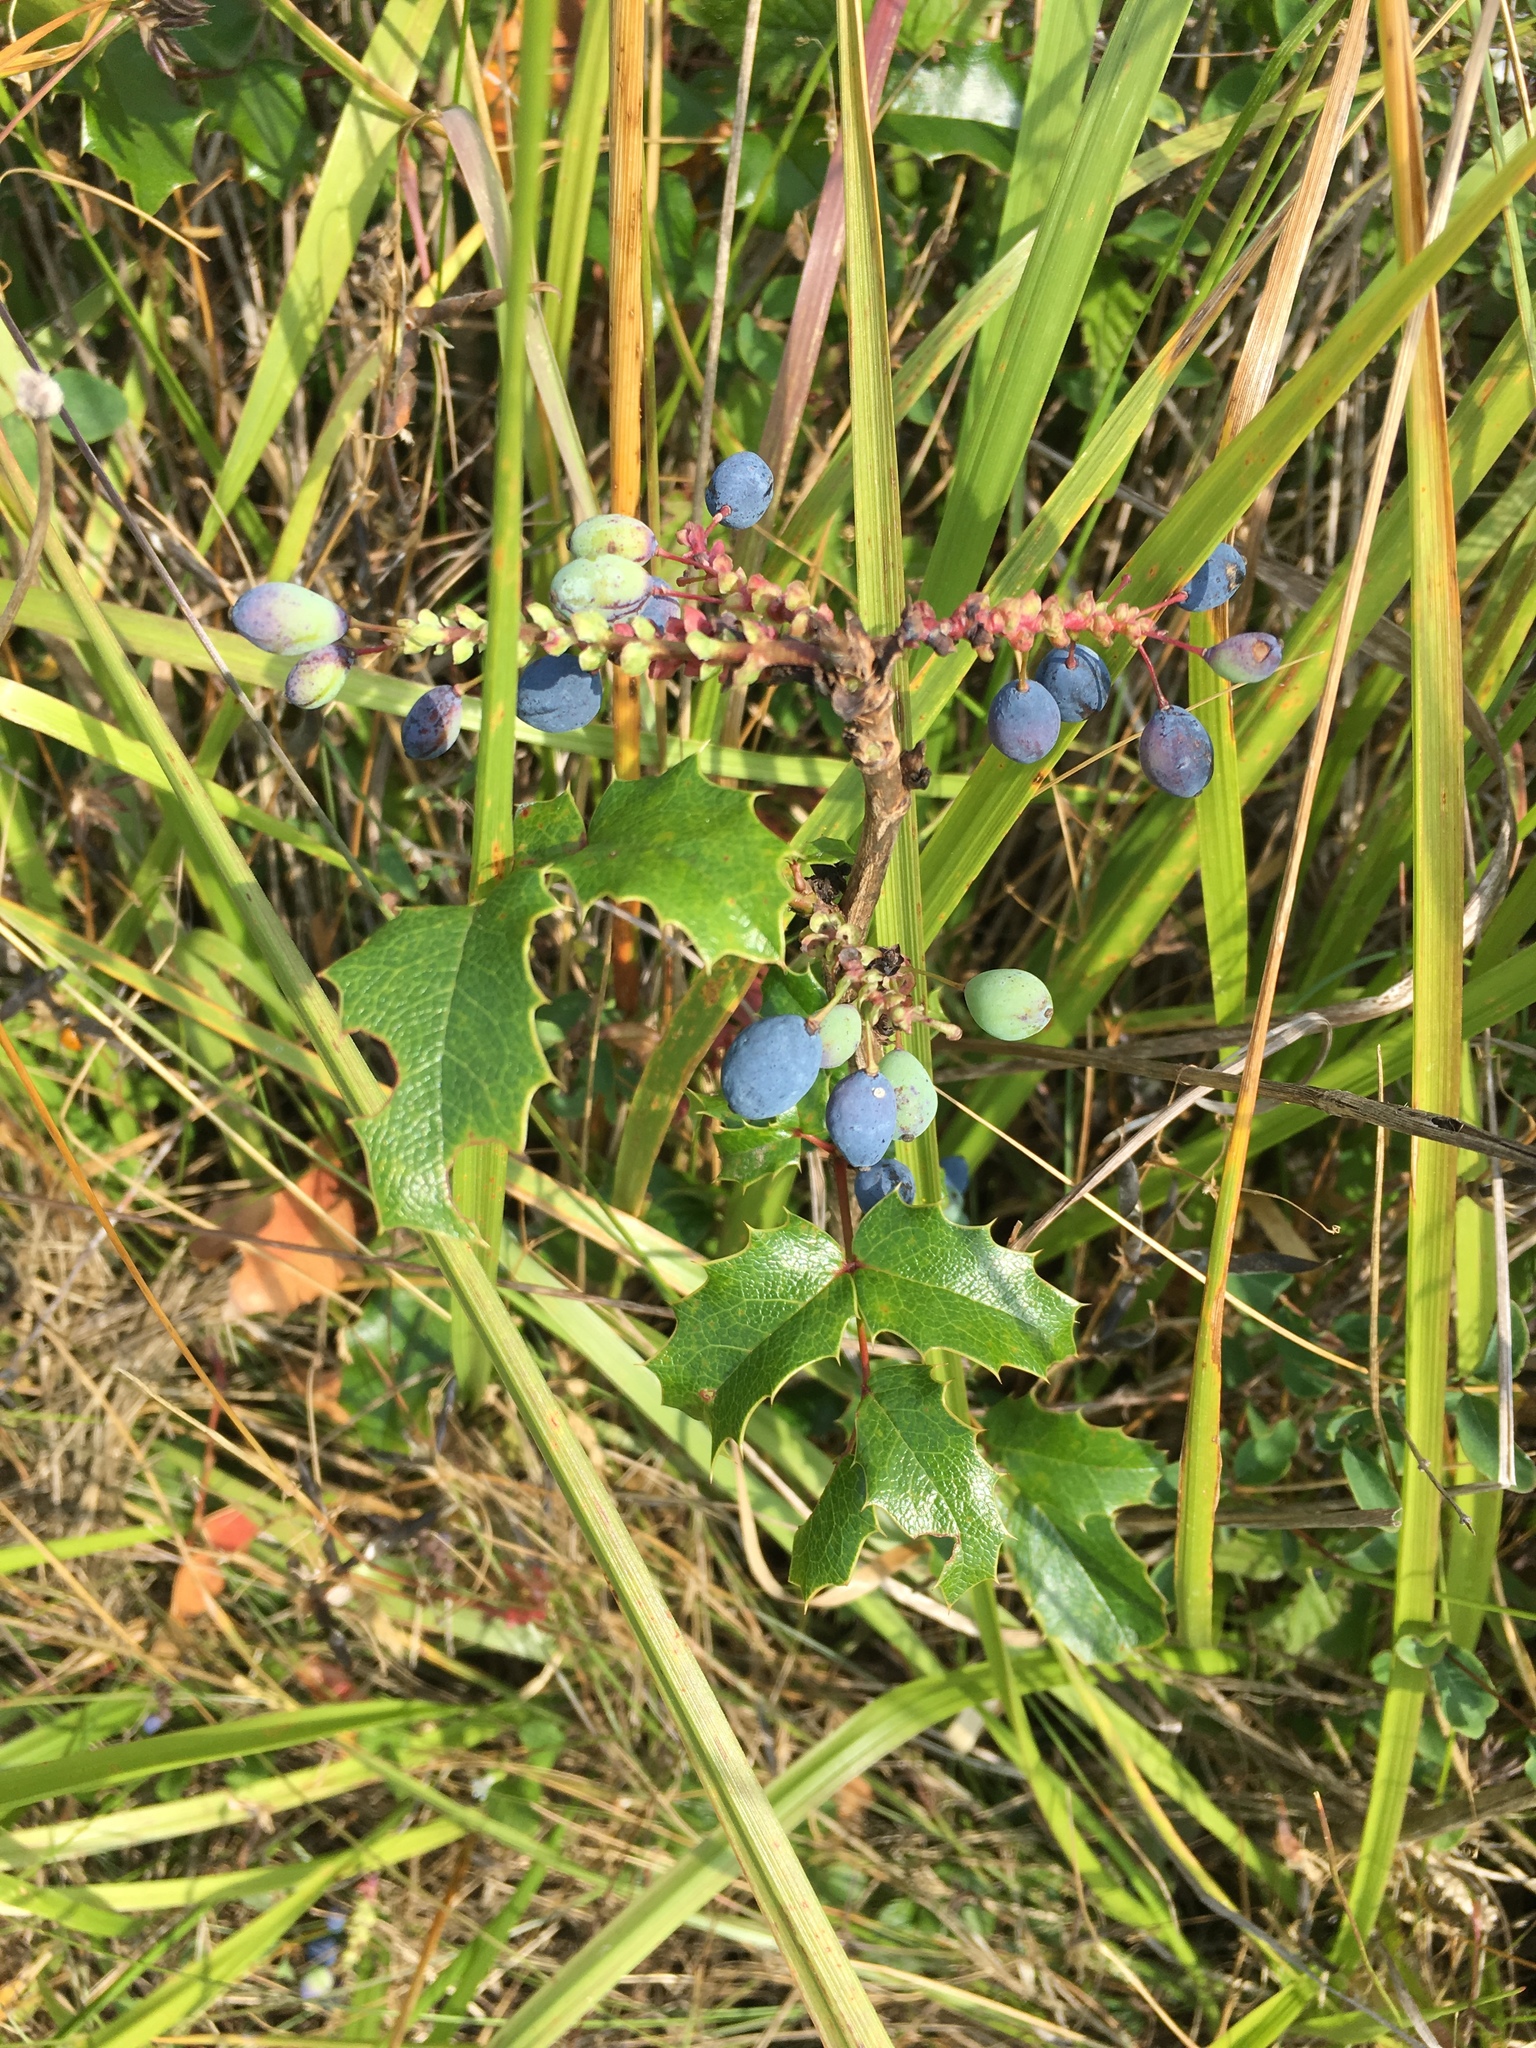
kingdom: Plantae
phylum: Tracheophyta
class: Magnoliopsida
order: Ranunculales
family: Berberidaceae
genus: Mahonia
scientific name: Mahonia aquifolium
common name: Oregon-grape
